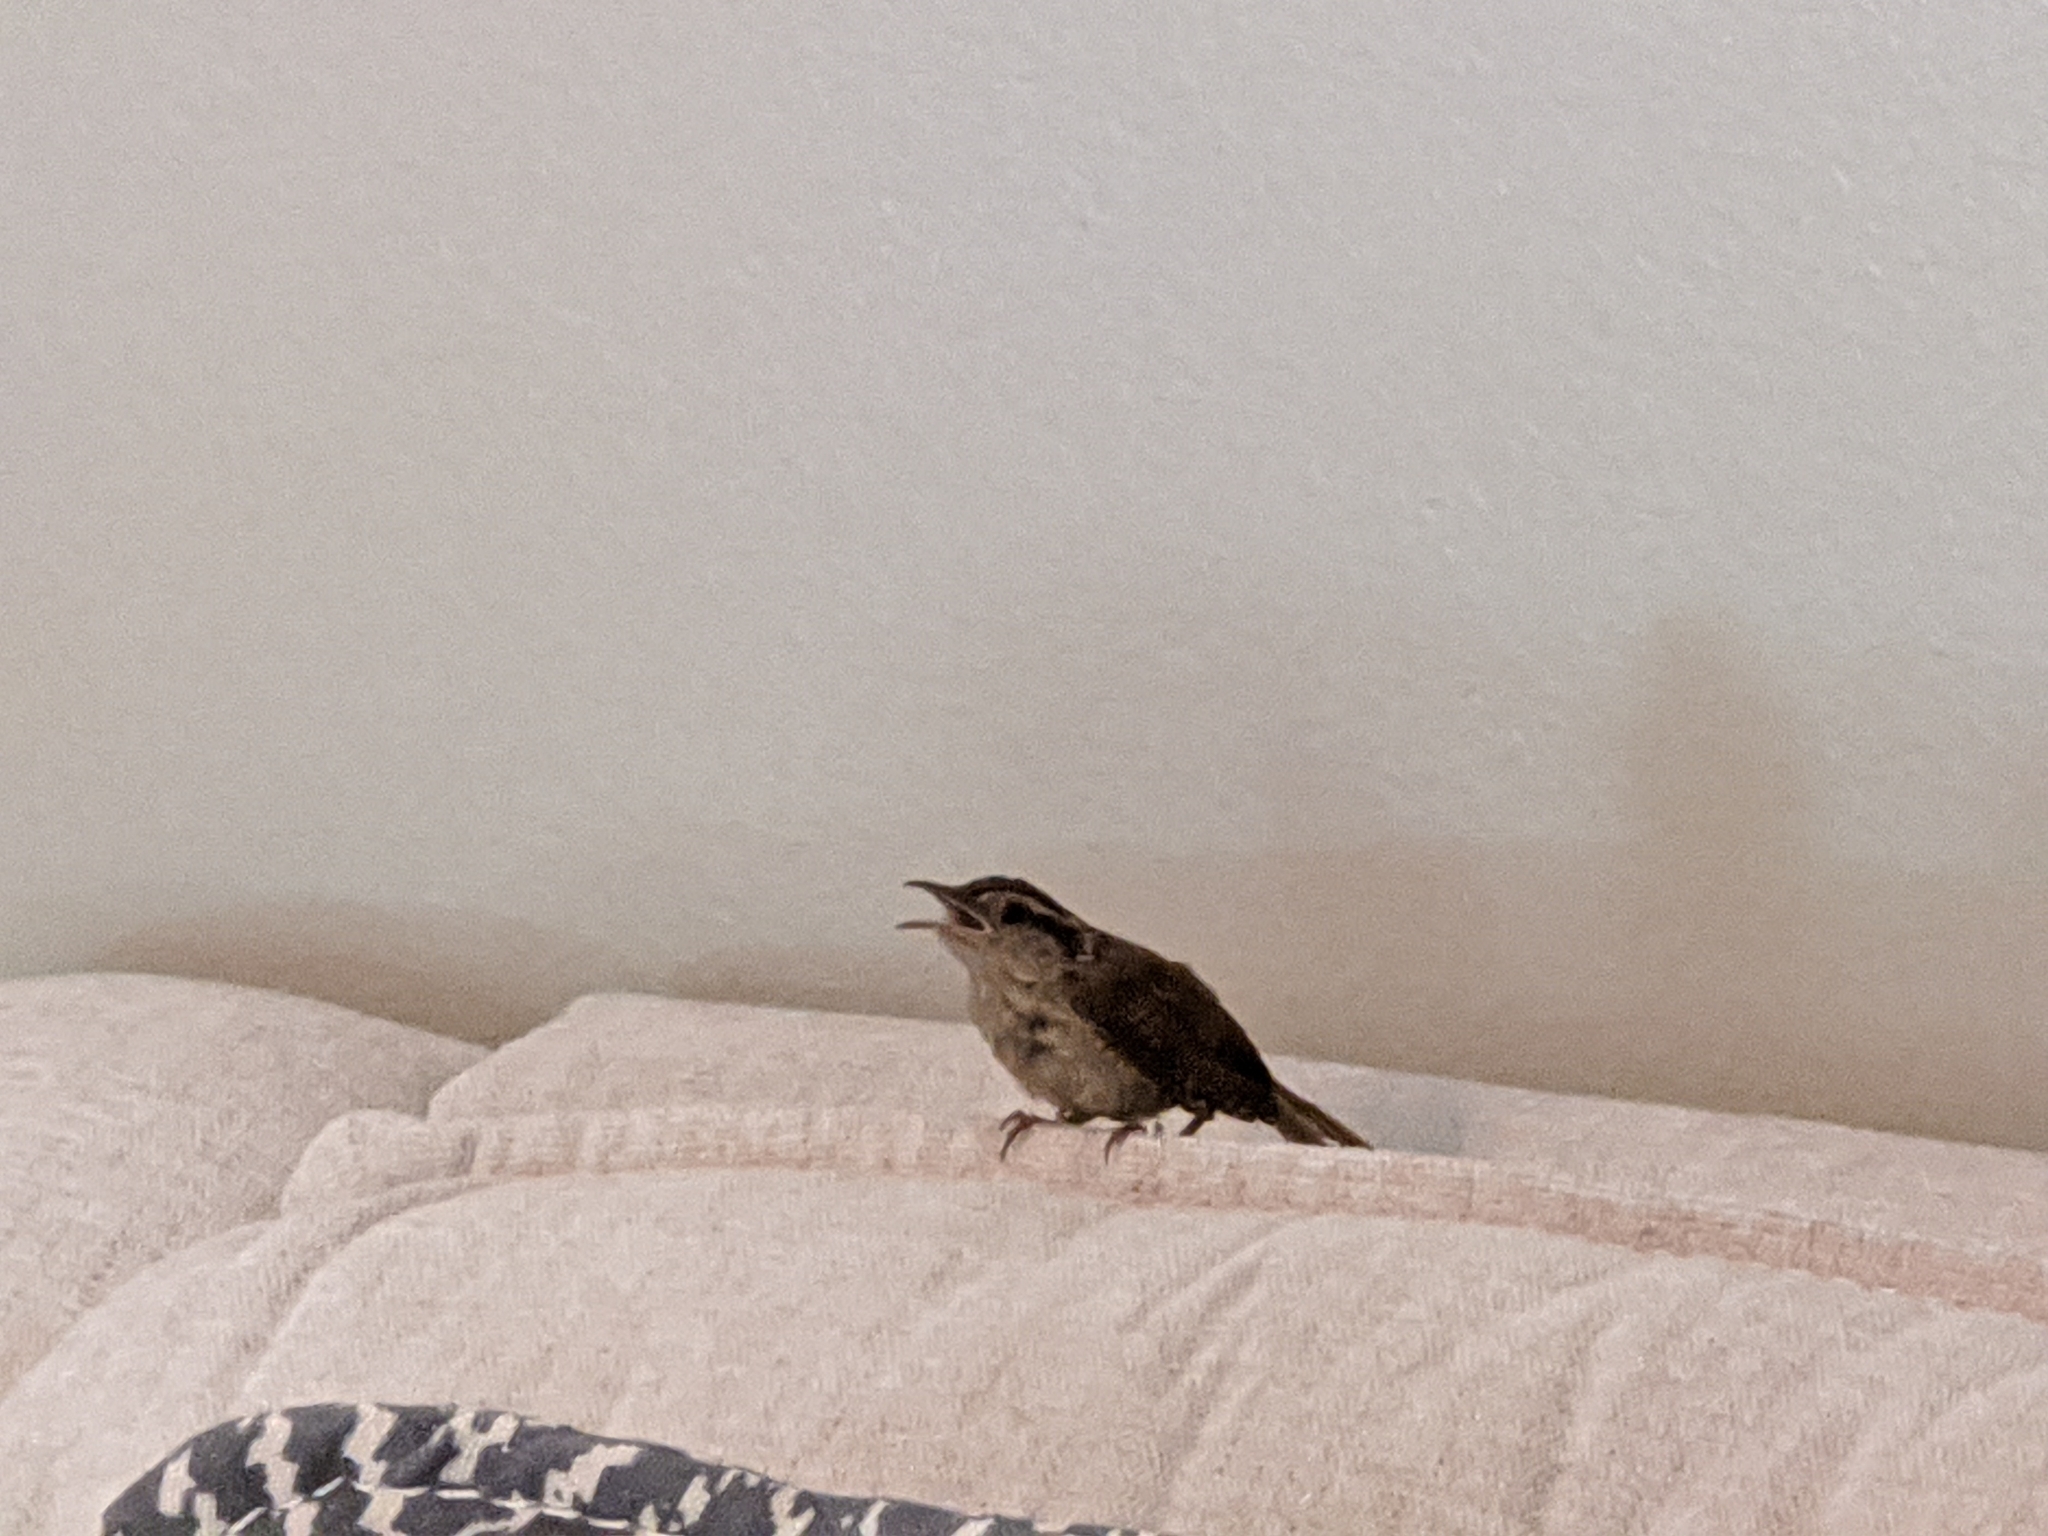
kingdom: Animalia
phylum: Chordata
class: Aves
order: Passeriformes
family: Troglodytidae
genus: Thryothorus
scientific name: Thryothorus ludovicianus
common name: Carolina wren
